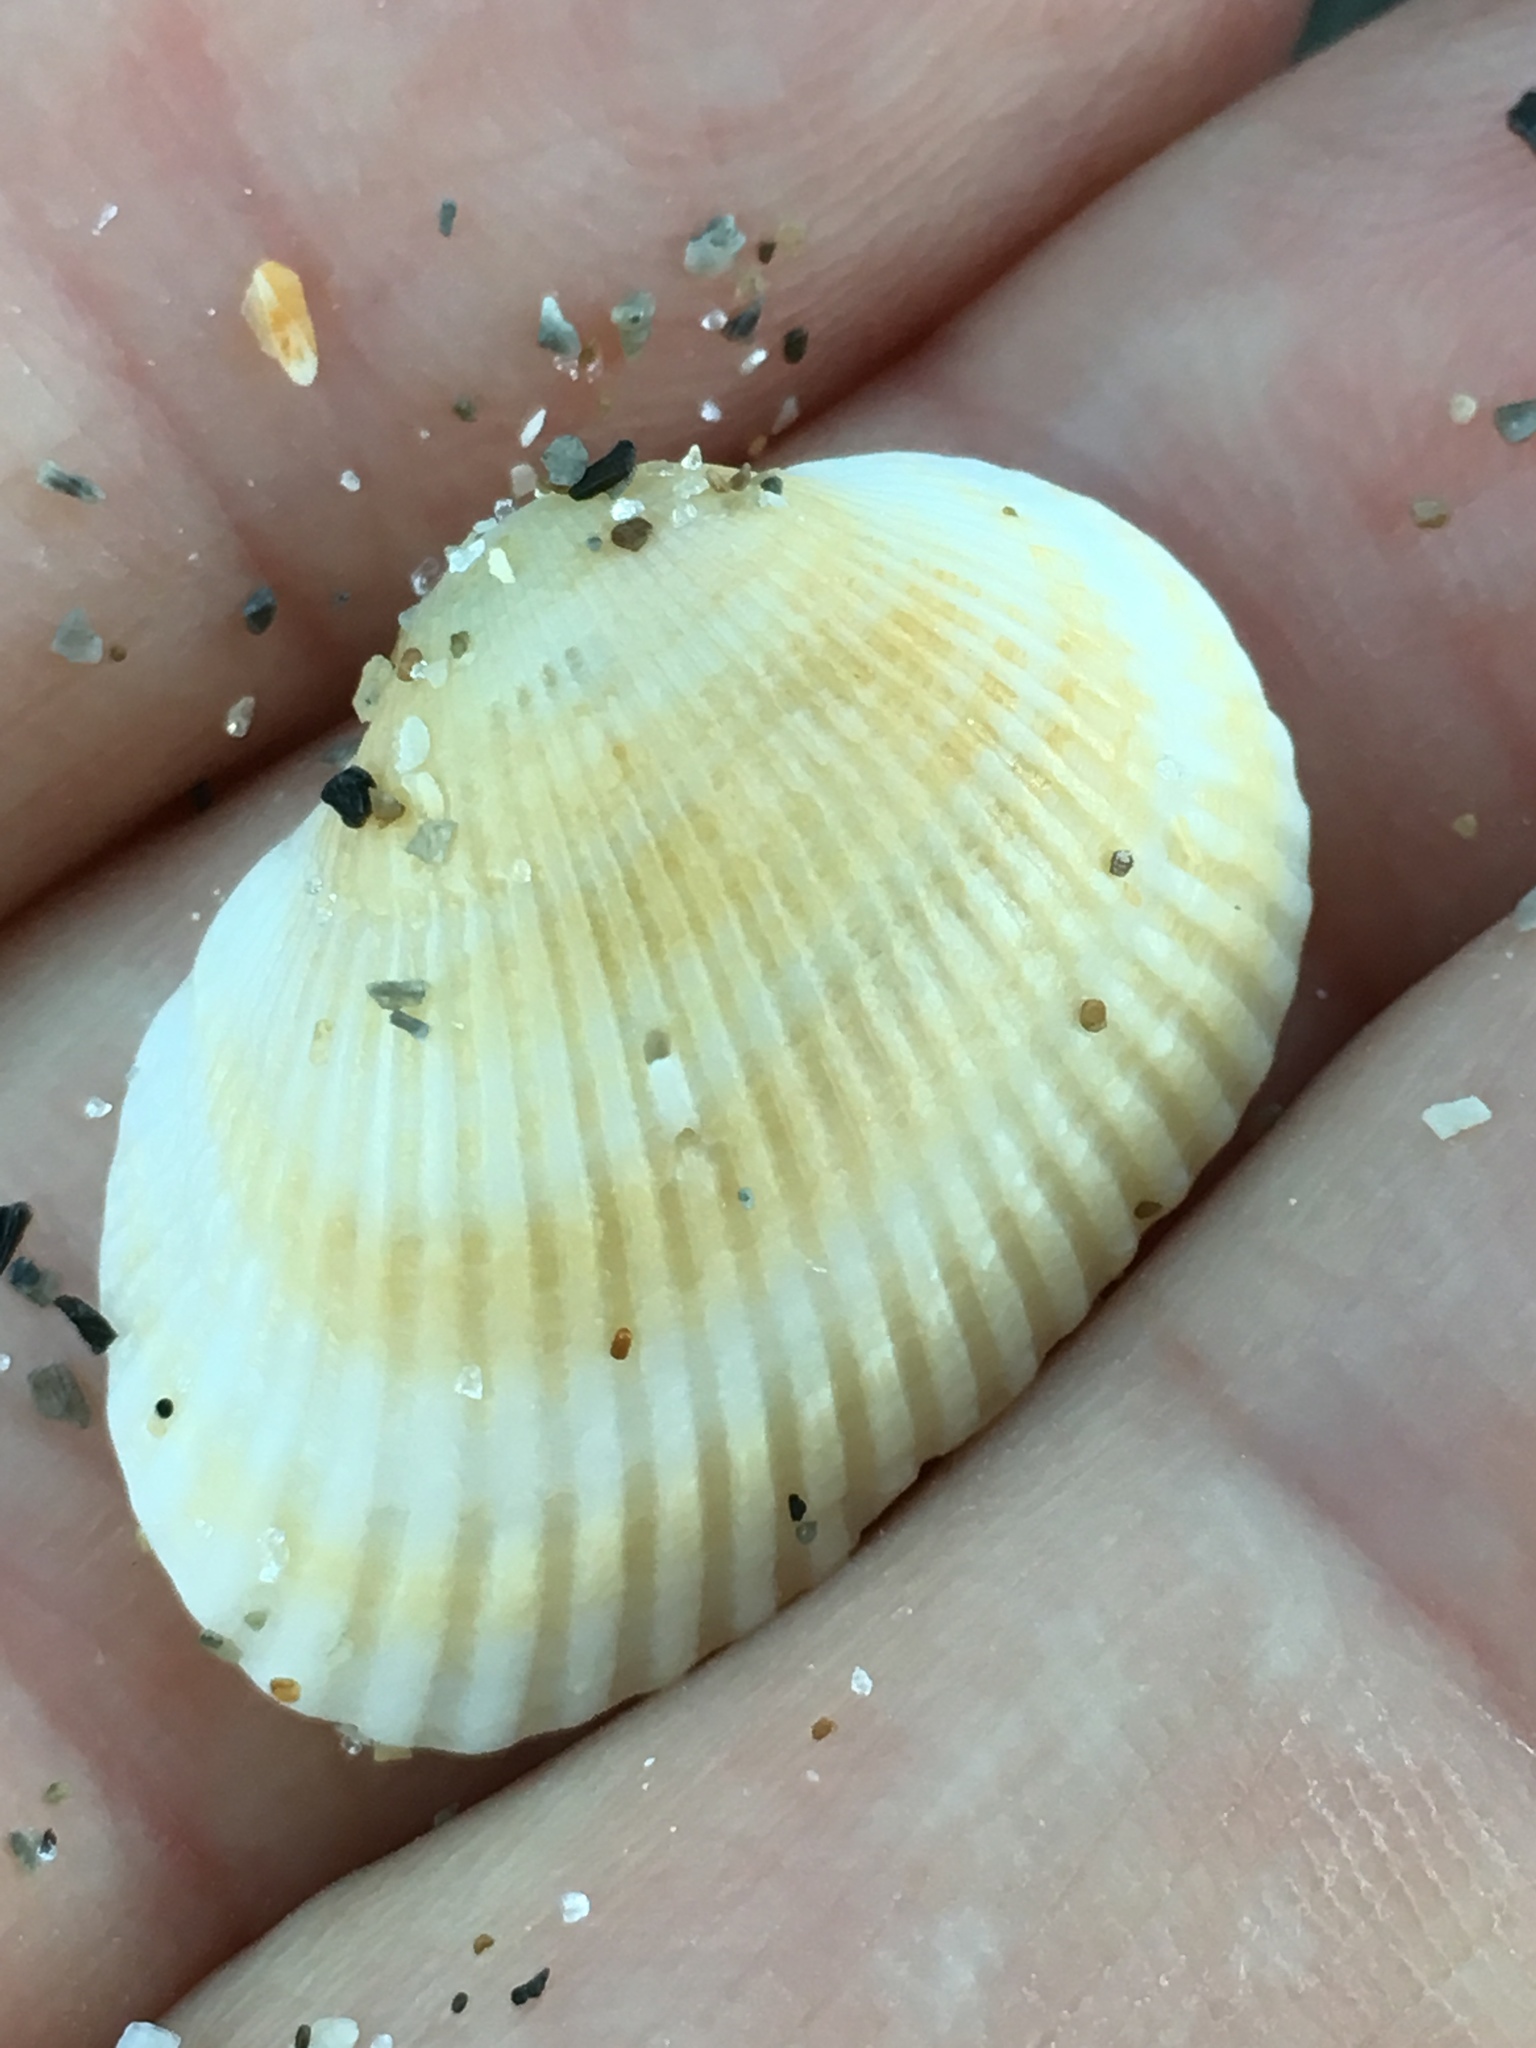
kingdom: Animalia
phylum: Mollusca
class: Bivalvia
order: Arcida
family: Arcidae
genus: Anadara
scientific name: Anadara transversa
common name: Transverse ark
